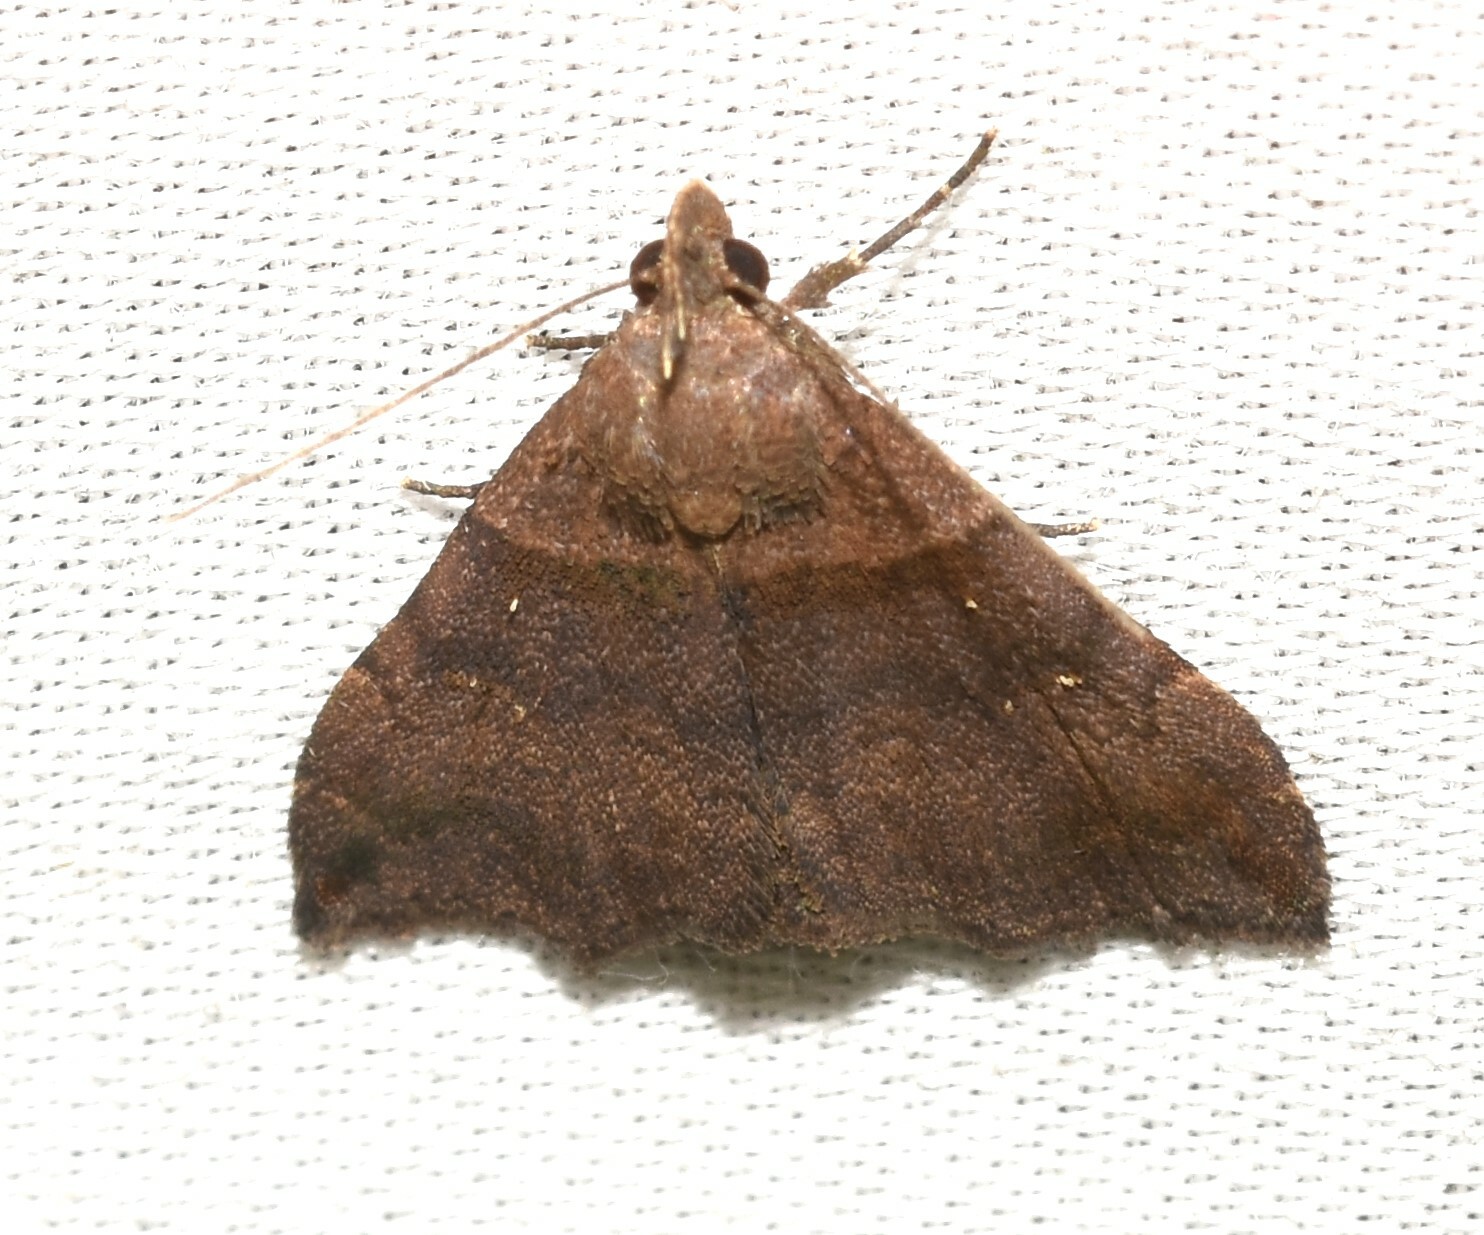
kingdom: Animalia
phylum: Arthropoda
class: Insecta
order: Lepidoptera
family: Erebidae
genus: Lascoria
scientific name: Lascoria ambigualis
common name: Ambiguous moth
